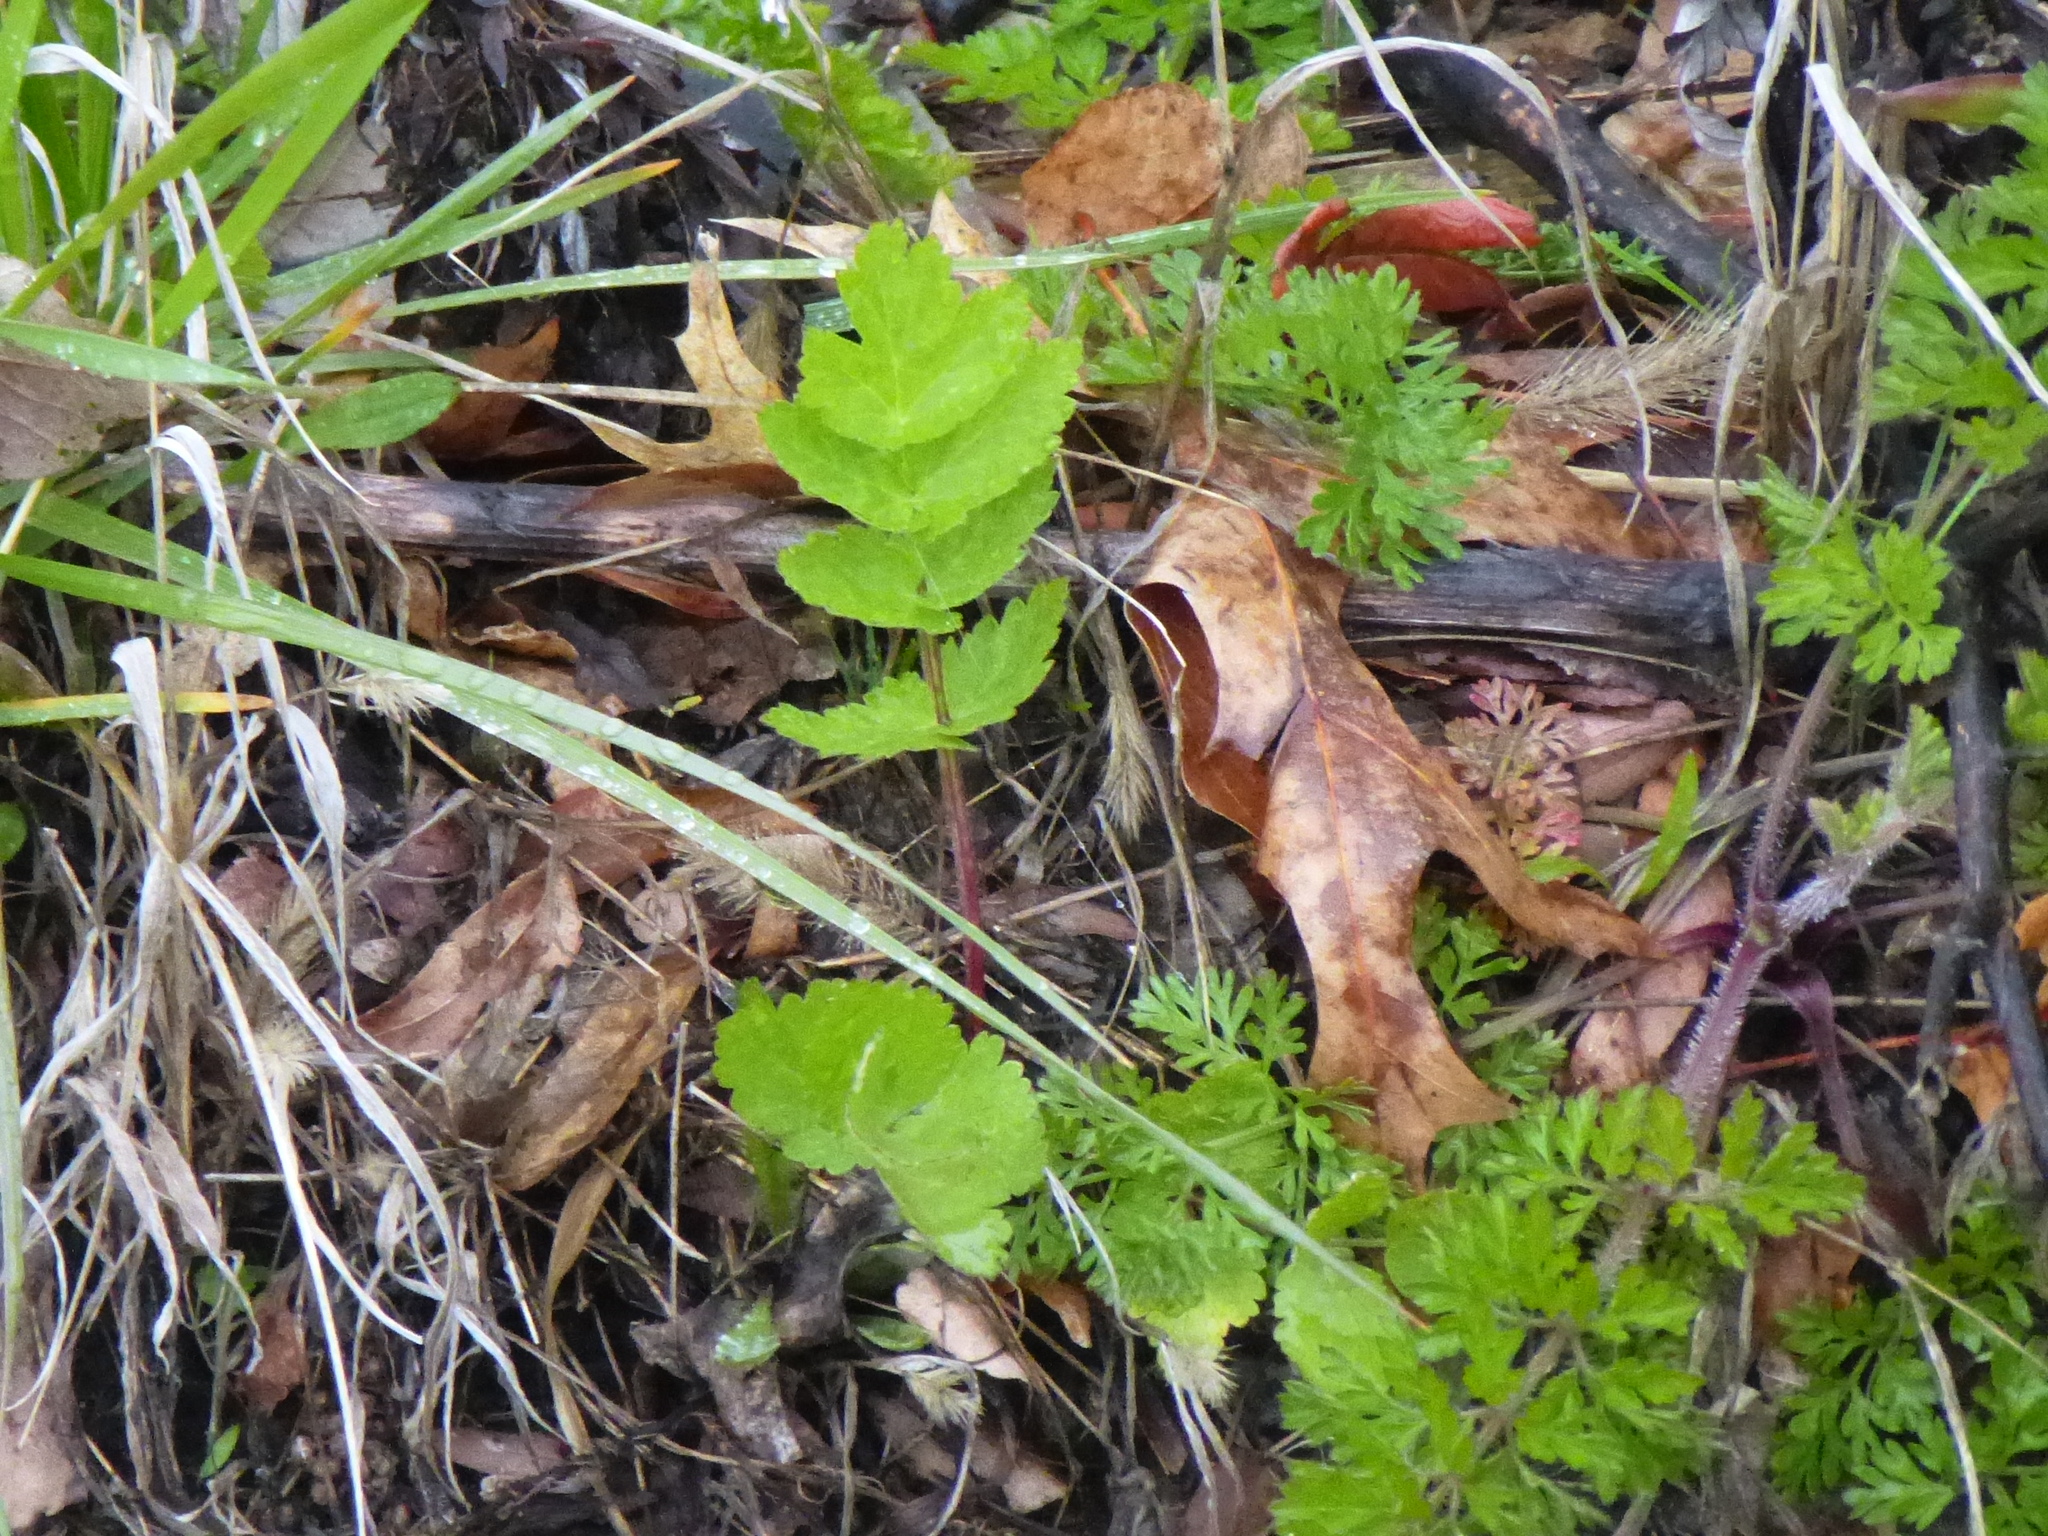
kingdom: Plantae
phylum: Tracheophyta
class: Magnoliopsida
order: Apiales
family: Apiaceae
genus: Pastinaca
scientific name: Pastinaca sativa
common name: Wild parsnip
